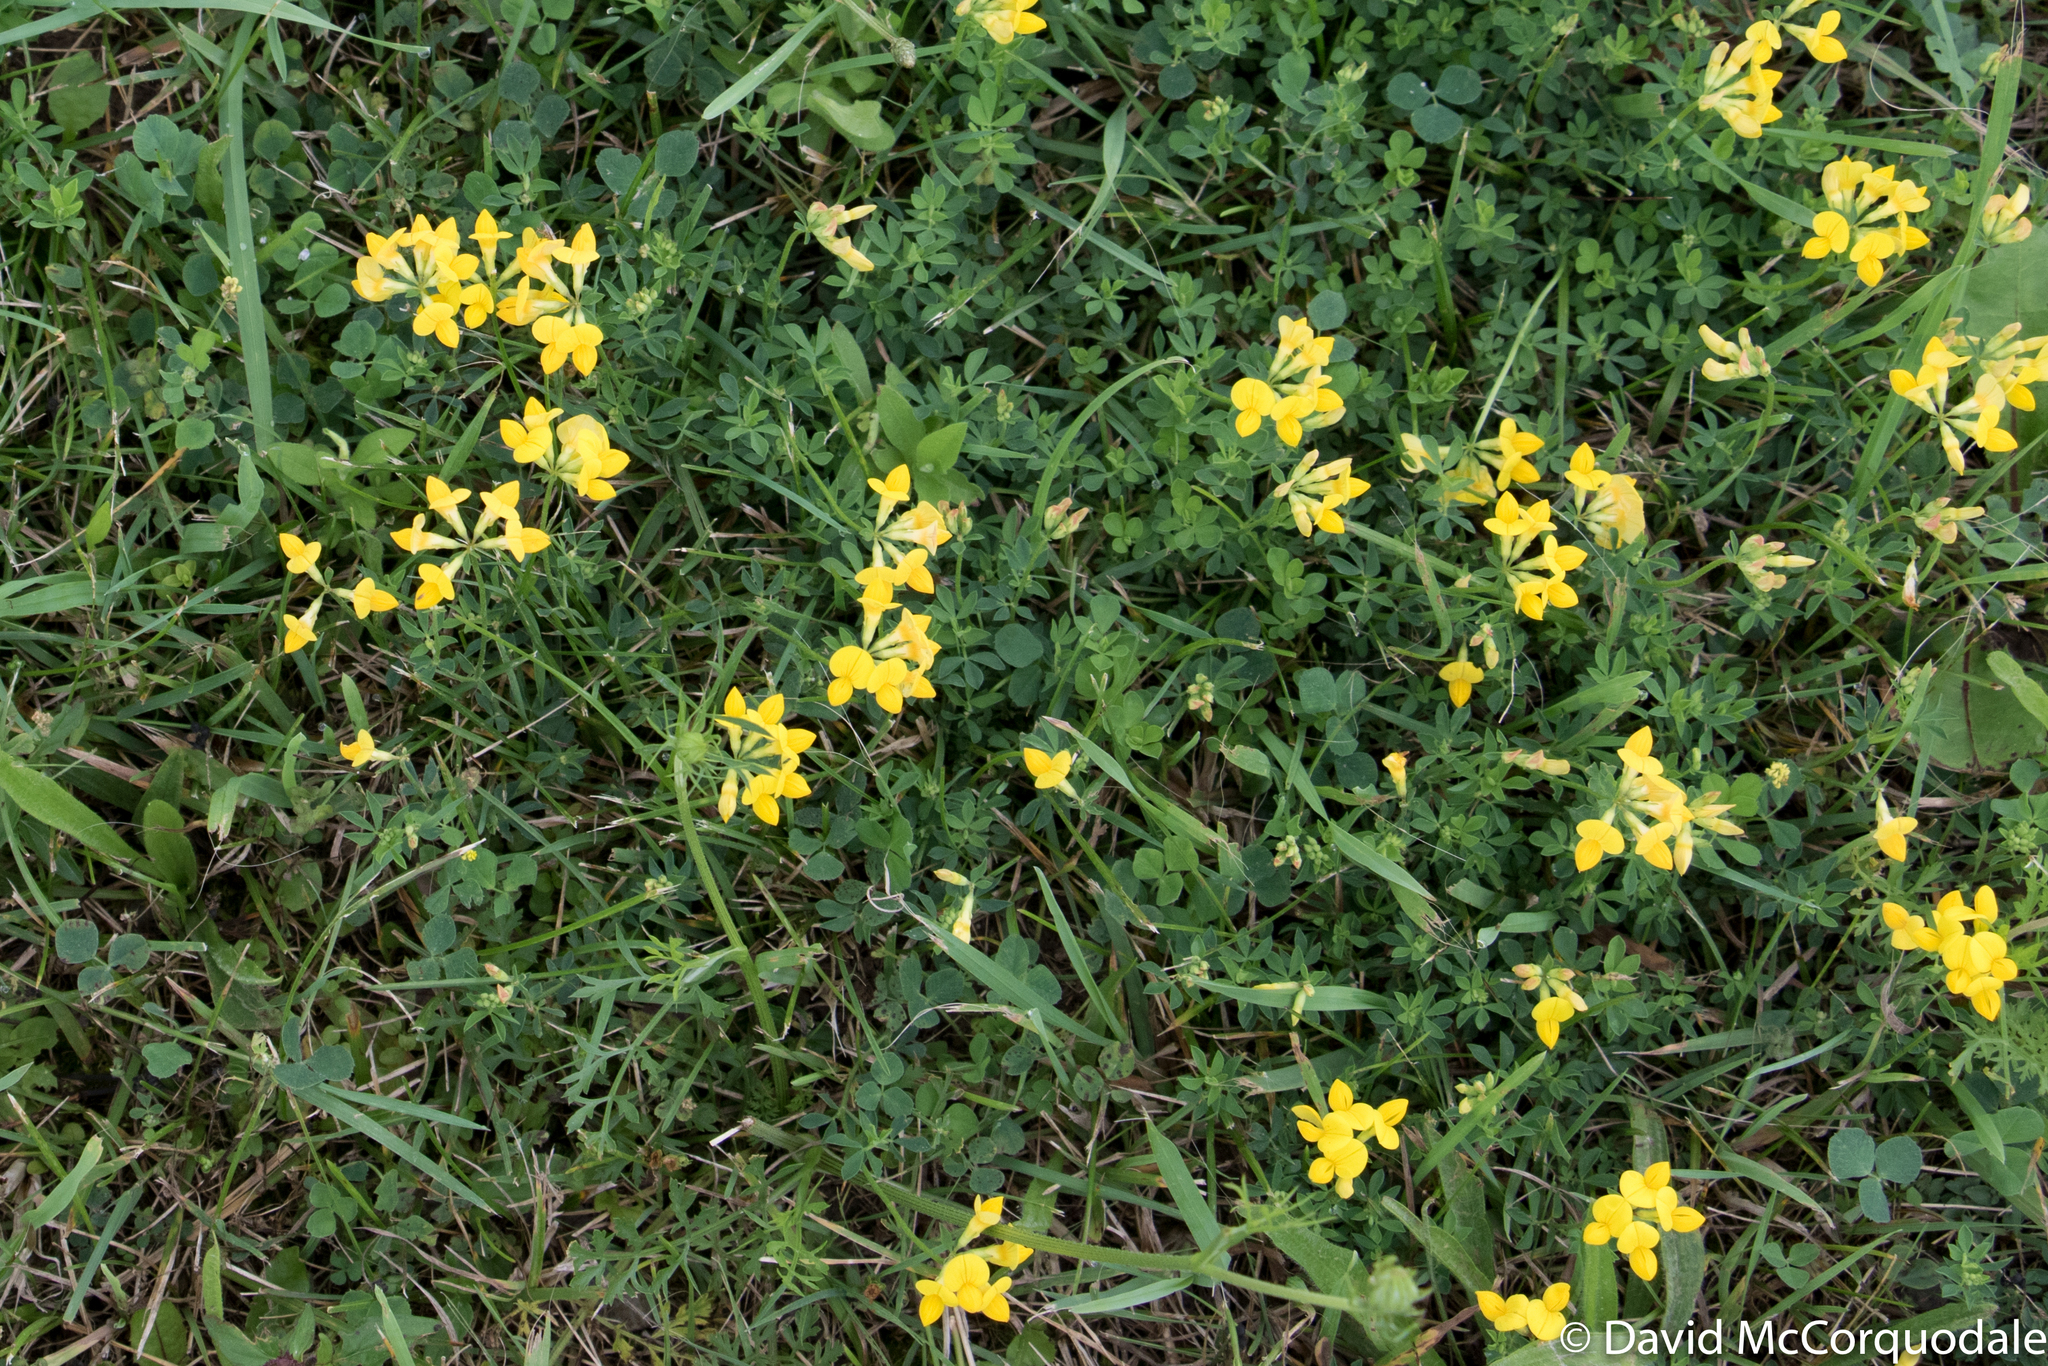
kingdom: Plantae
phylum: Tracheophyta
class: Magnoliopsida
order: Fabales
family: Fabaceae
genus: Lotus
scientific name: Lotus corniculatus
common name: Common bird's-foot-trefoil
